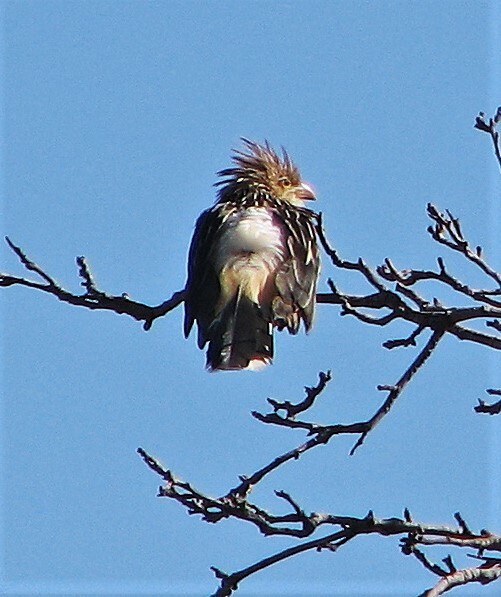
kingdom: Animalia
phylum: Chordata
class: Aves
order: Cuculiformes
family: Cuculidae
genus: Guira
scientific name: Guira guira
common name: Guira cuckoo
